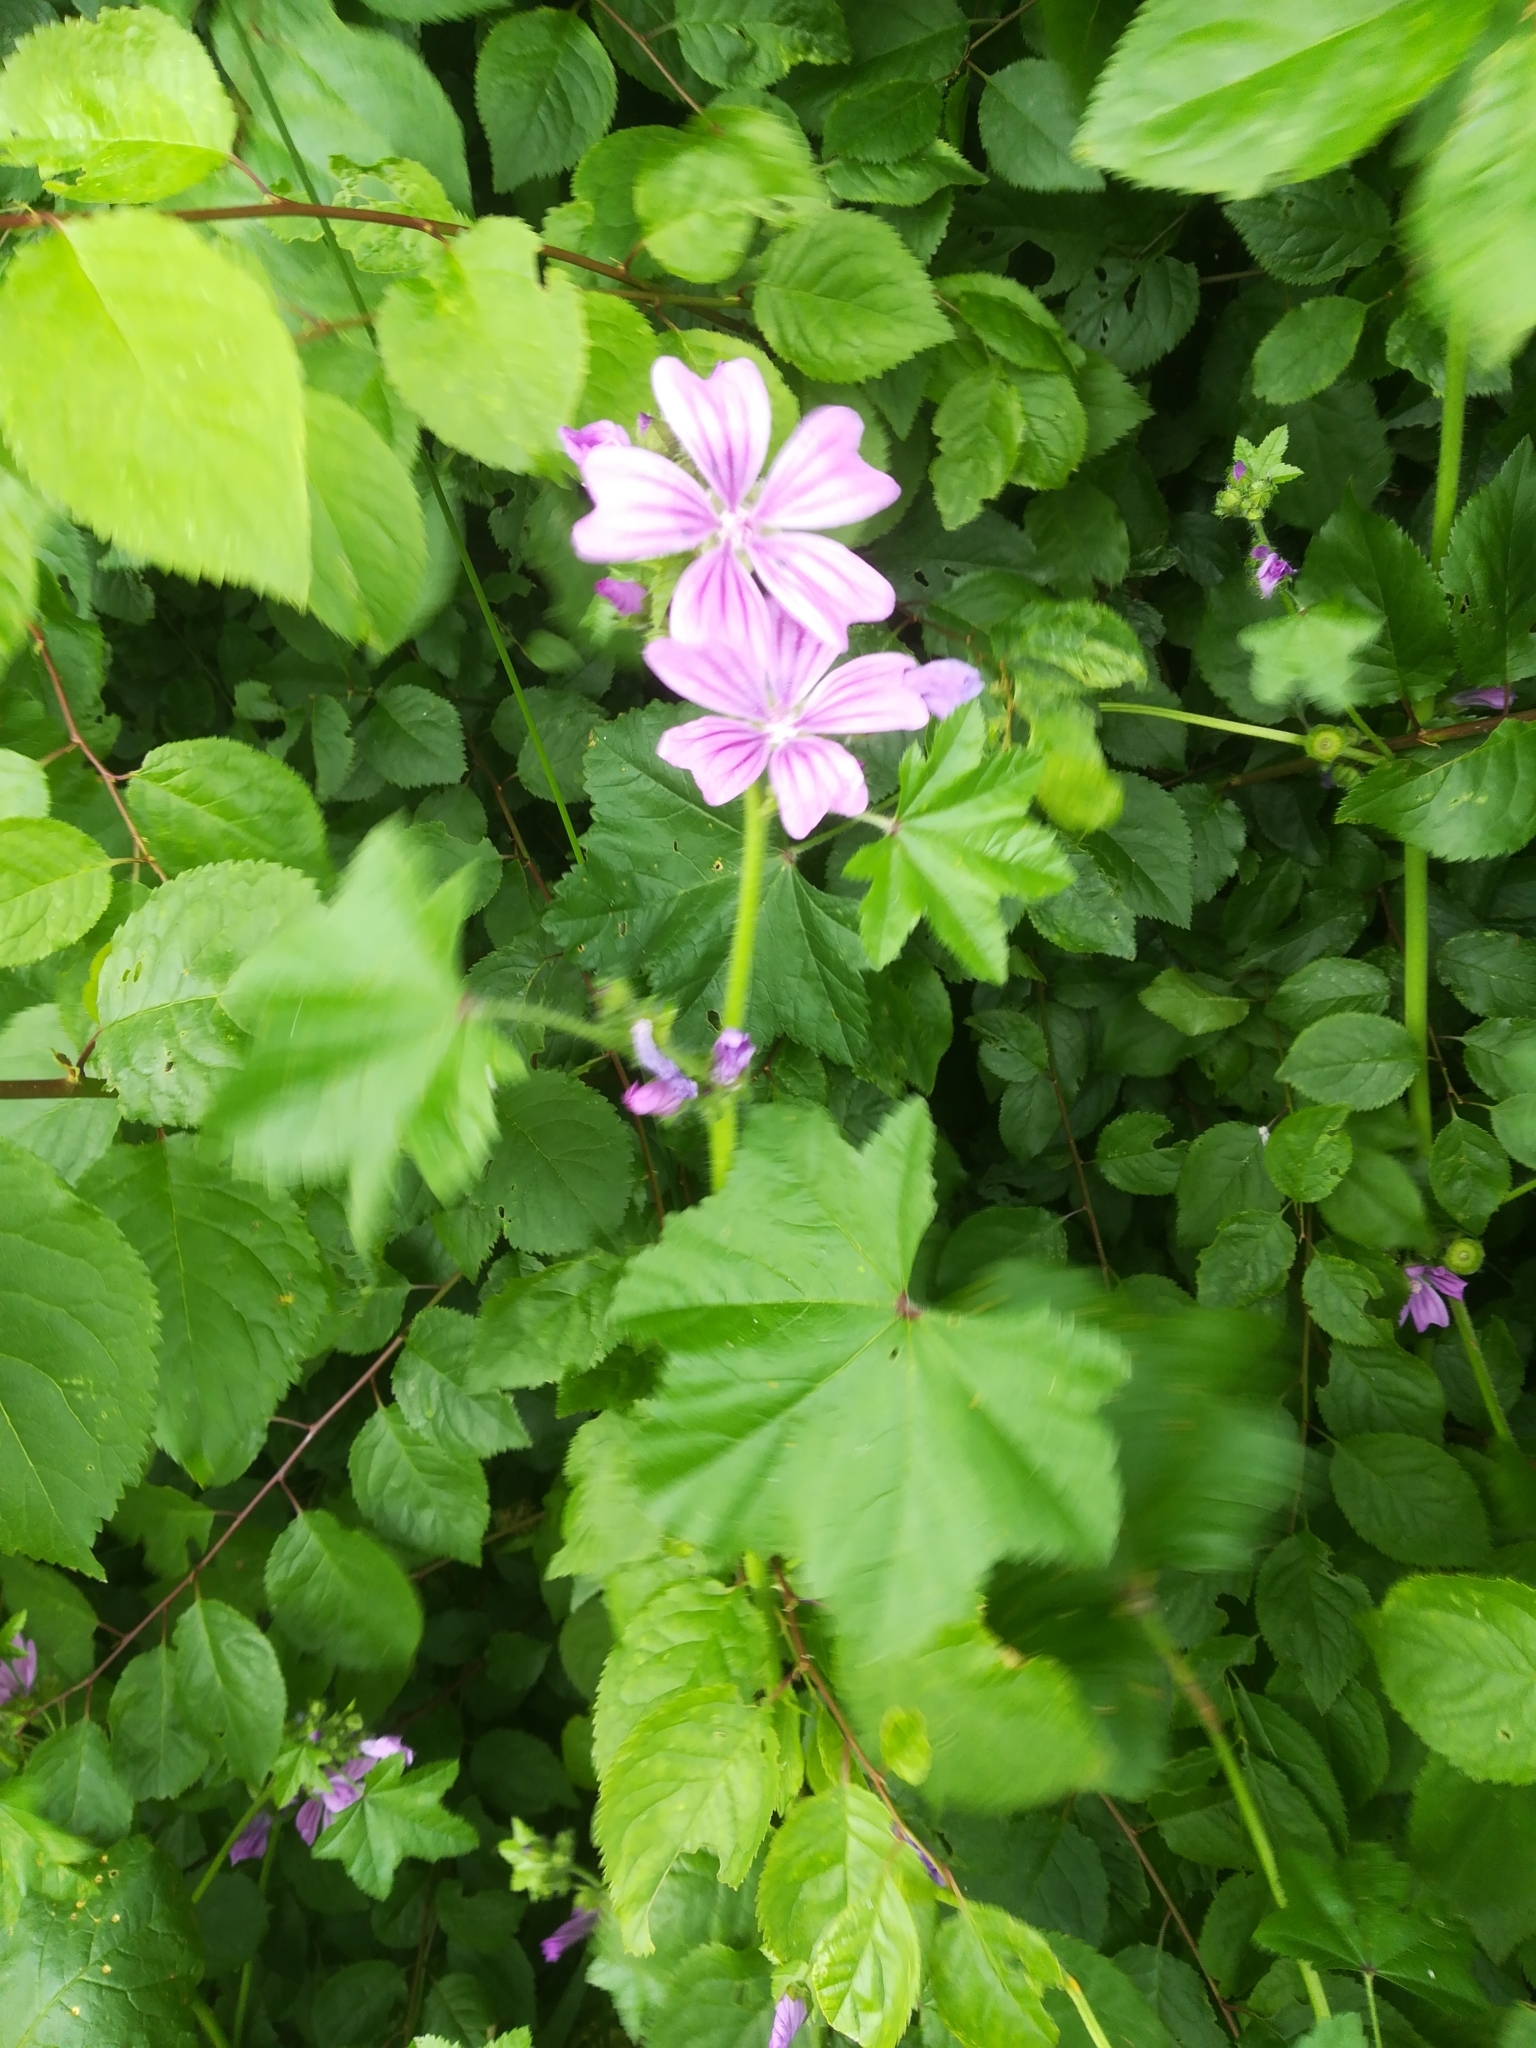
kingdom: Plantae
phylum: Tracheophyta
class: Magnoliopsida
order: Malvales
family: Malvaceae
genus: Malva
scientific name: Malva sylvestris
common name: Common mallow
